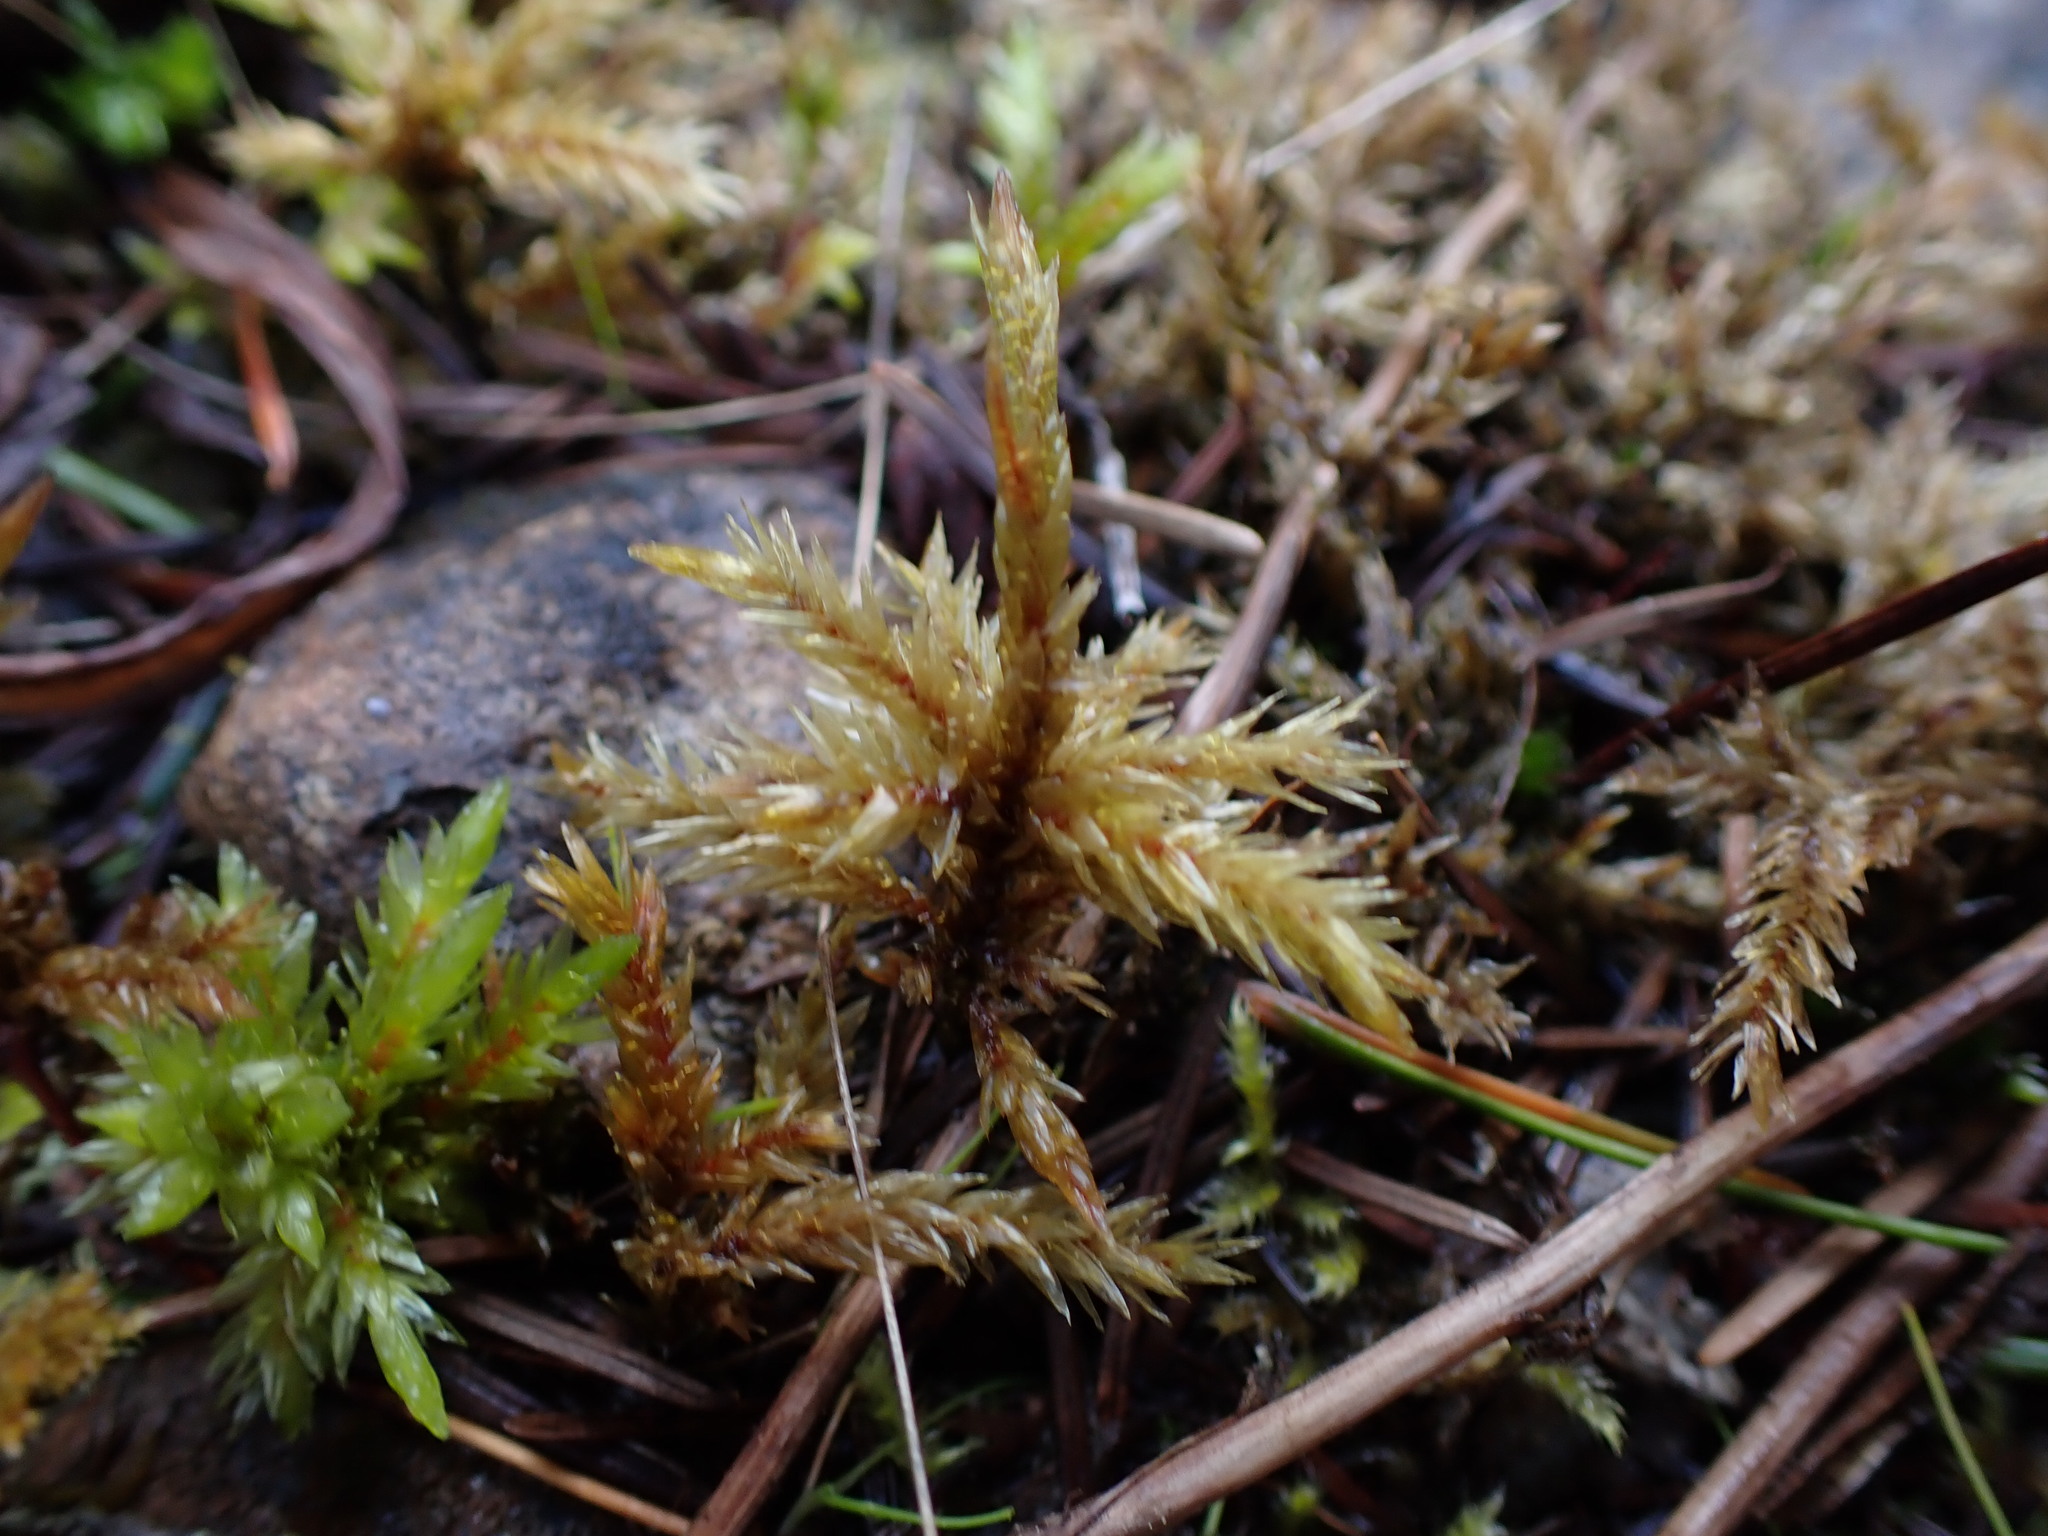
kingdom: Plantae
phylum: Bryophyta
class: Bryopsida
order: Hypnales
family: Climaciaceae
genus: Climacium
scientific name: Climacium dendroides
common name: Northern tree moss
